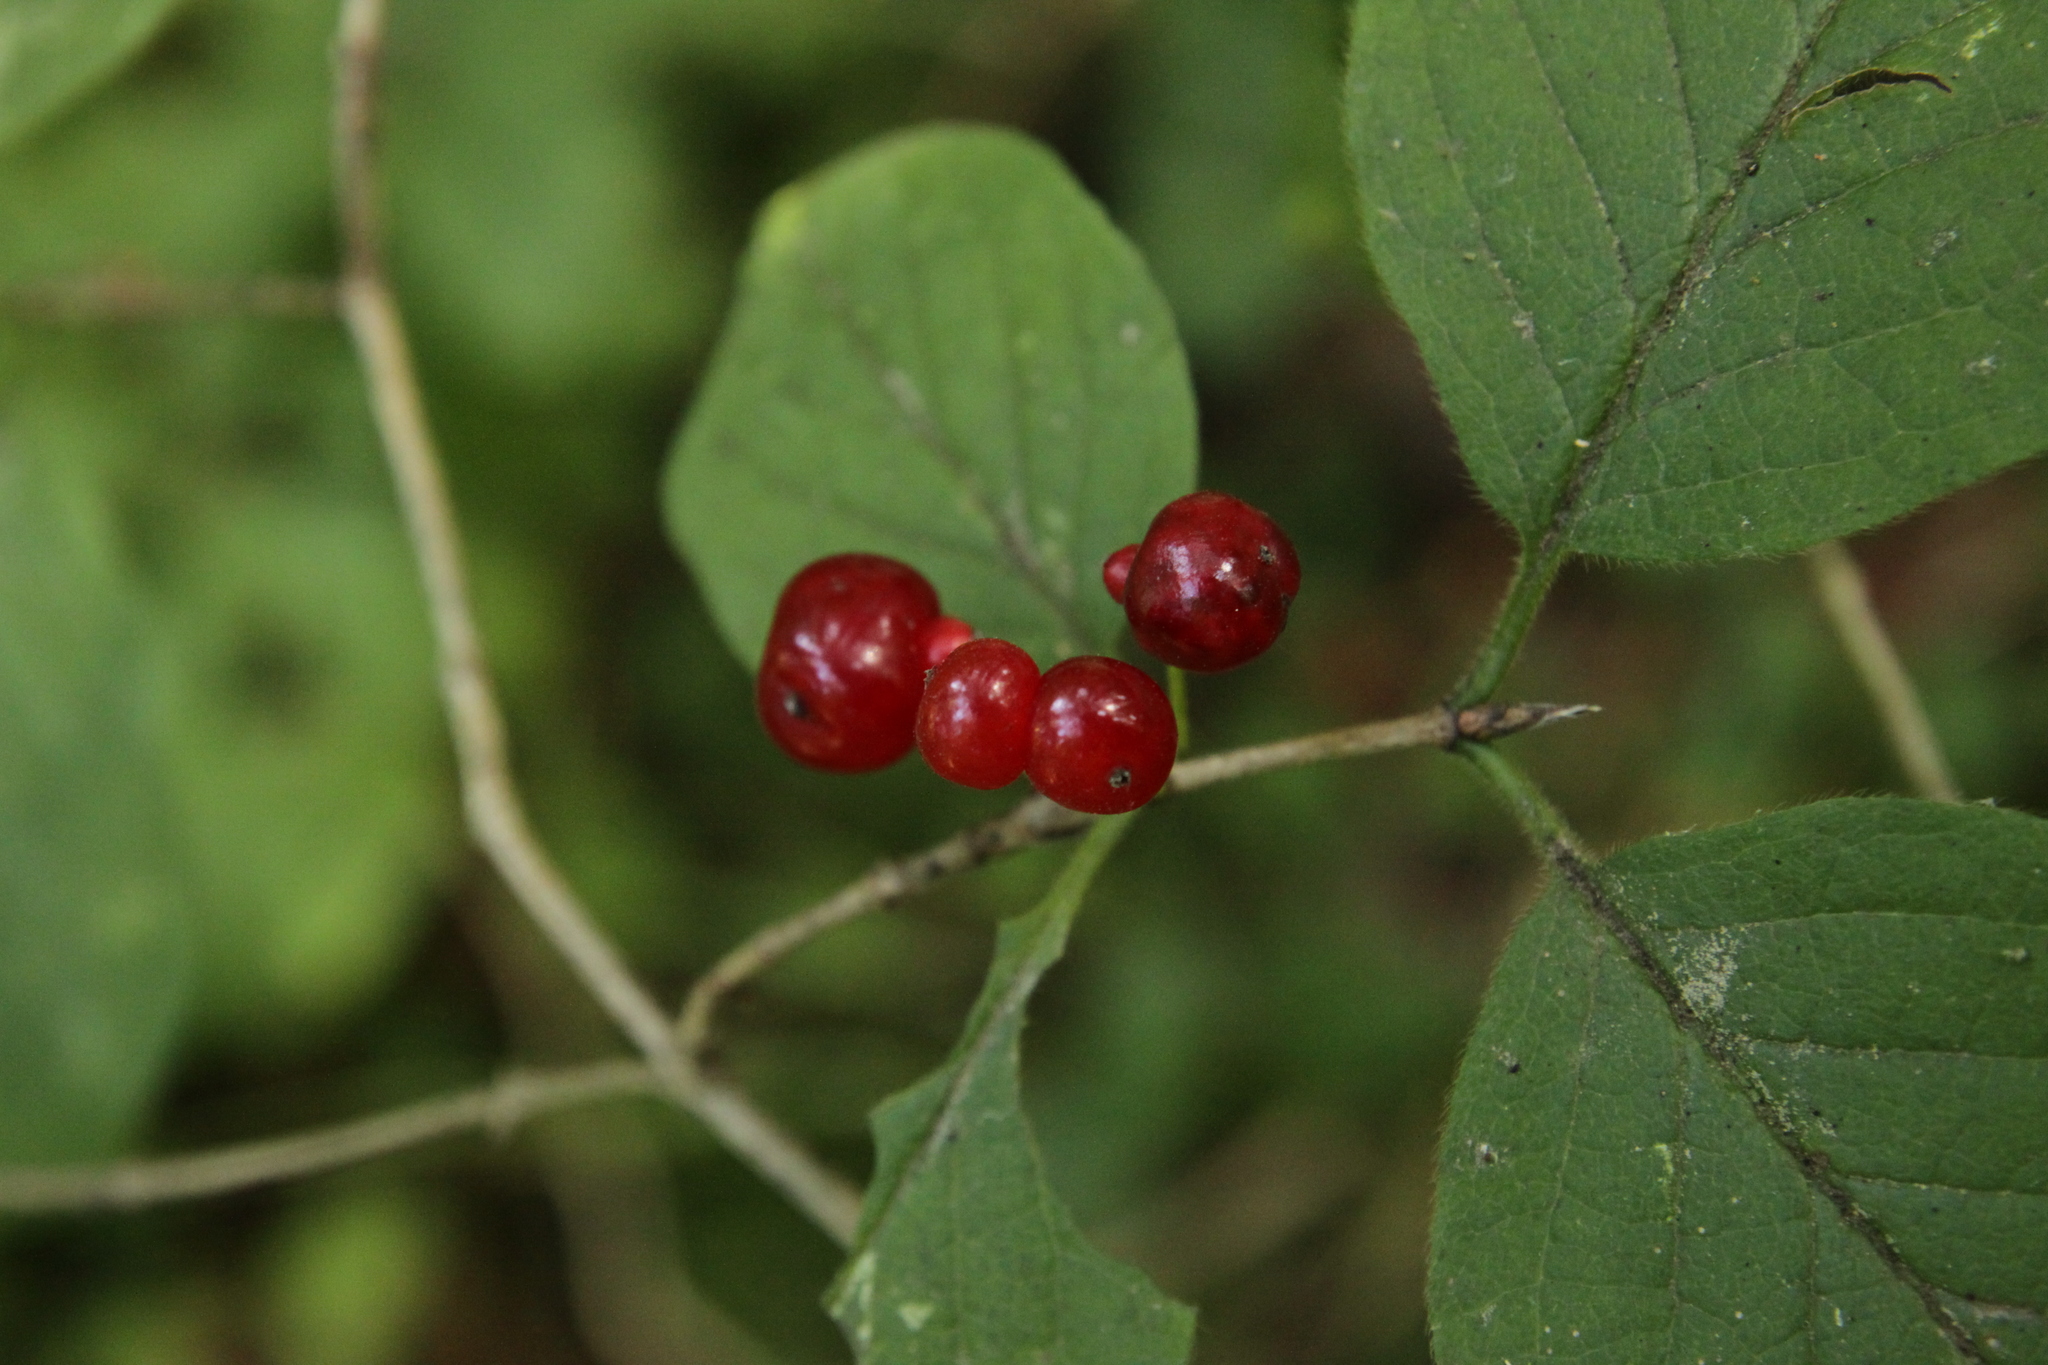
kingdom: Plantae
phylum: Tracheophyta
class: Magnoliopsida
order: Dipsacales
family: Caprifoliaceae
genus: Lonicera
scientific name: Lonicera xylosteum
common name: Fly honeysuckle
